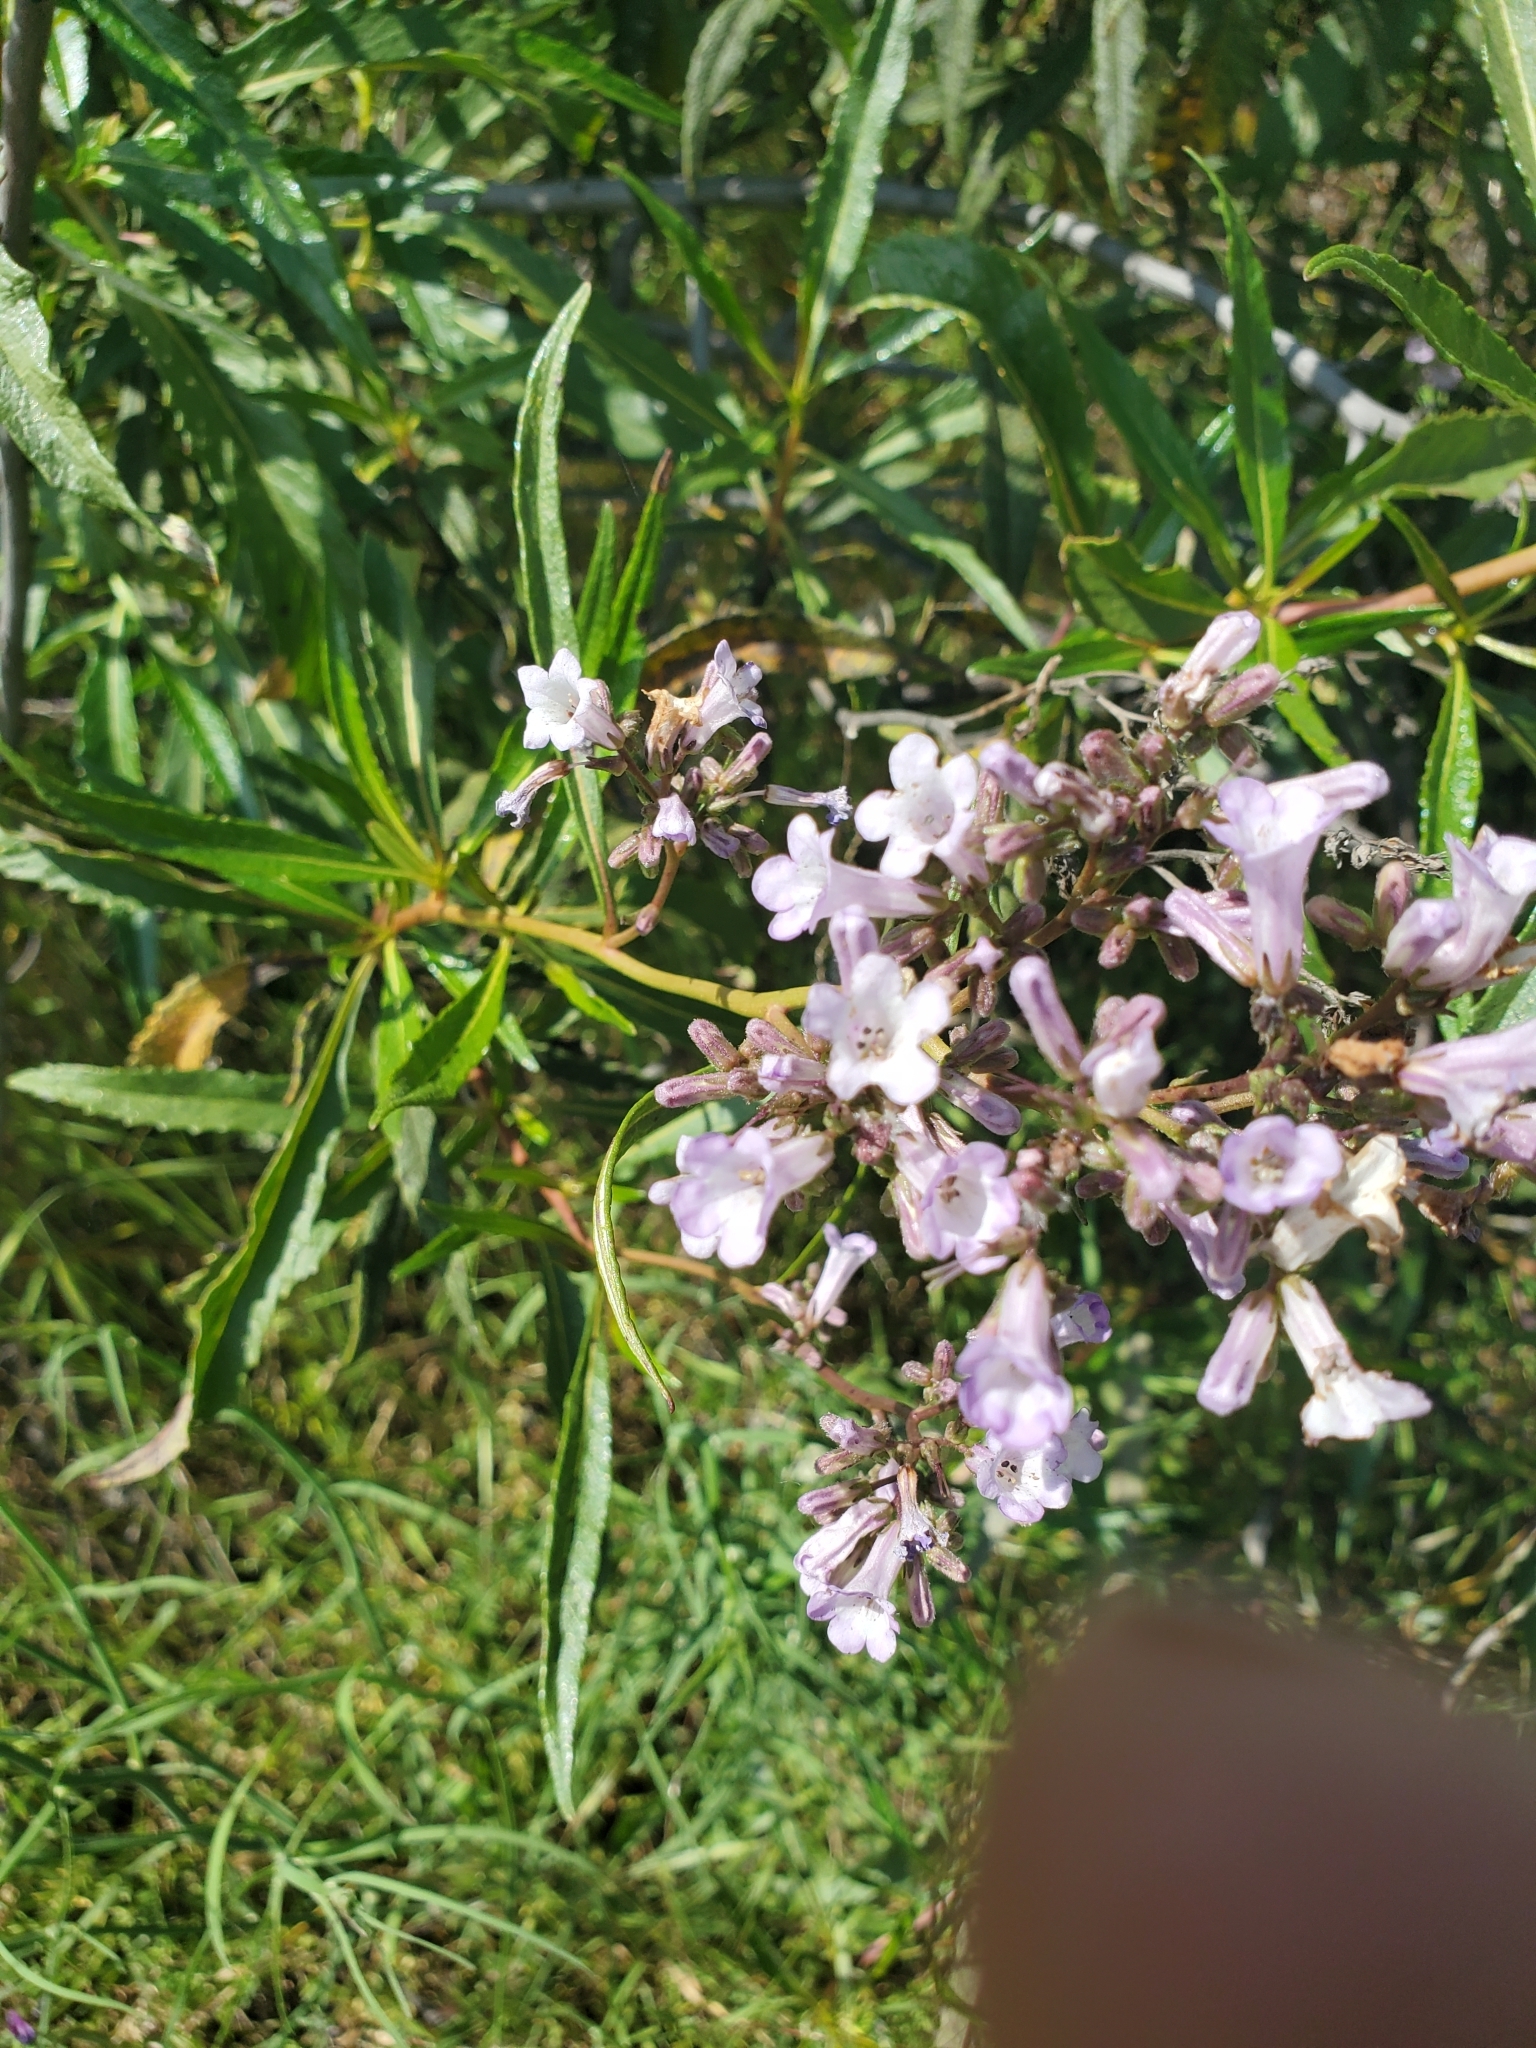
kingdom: Plantae
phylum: Tracheophyta
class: Magnoliopsida
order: Boraginales
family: Namaceae
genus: Eriodictyon
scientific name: Eriodictyon californicum
